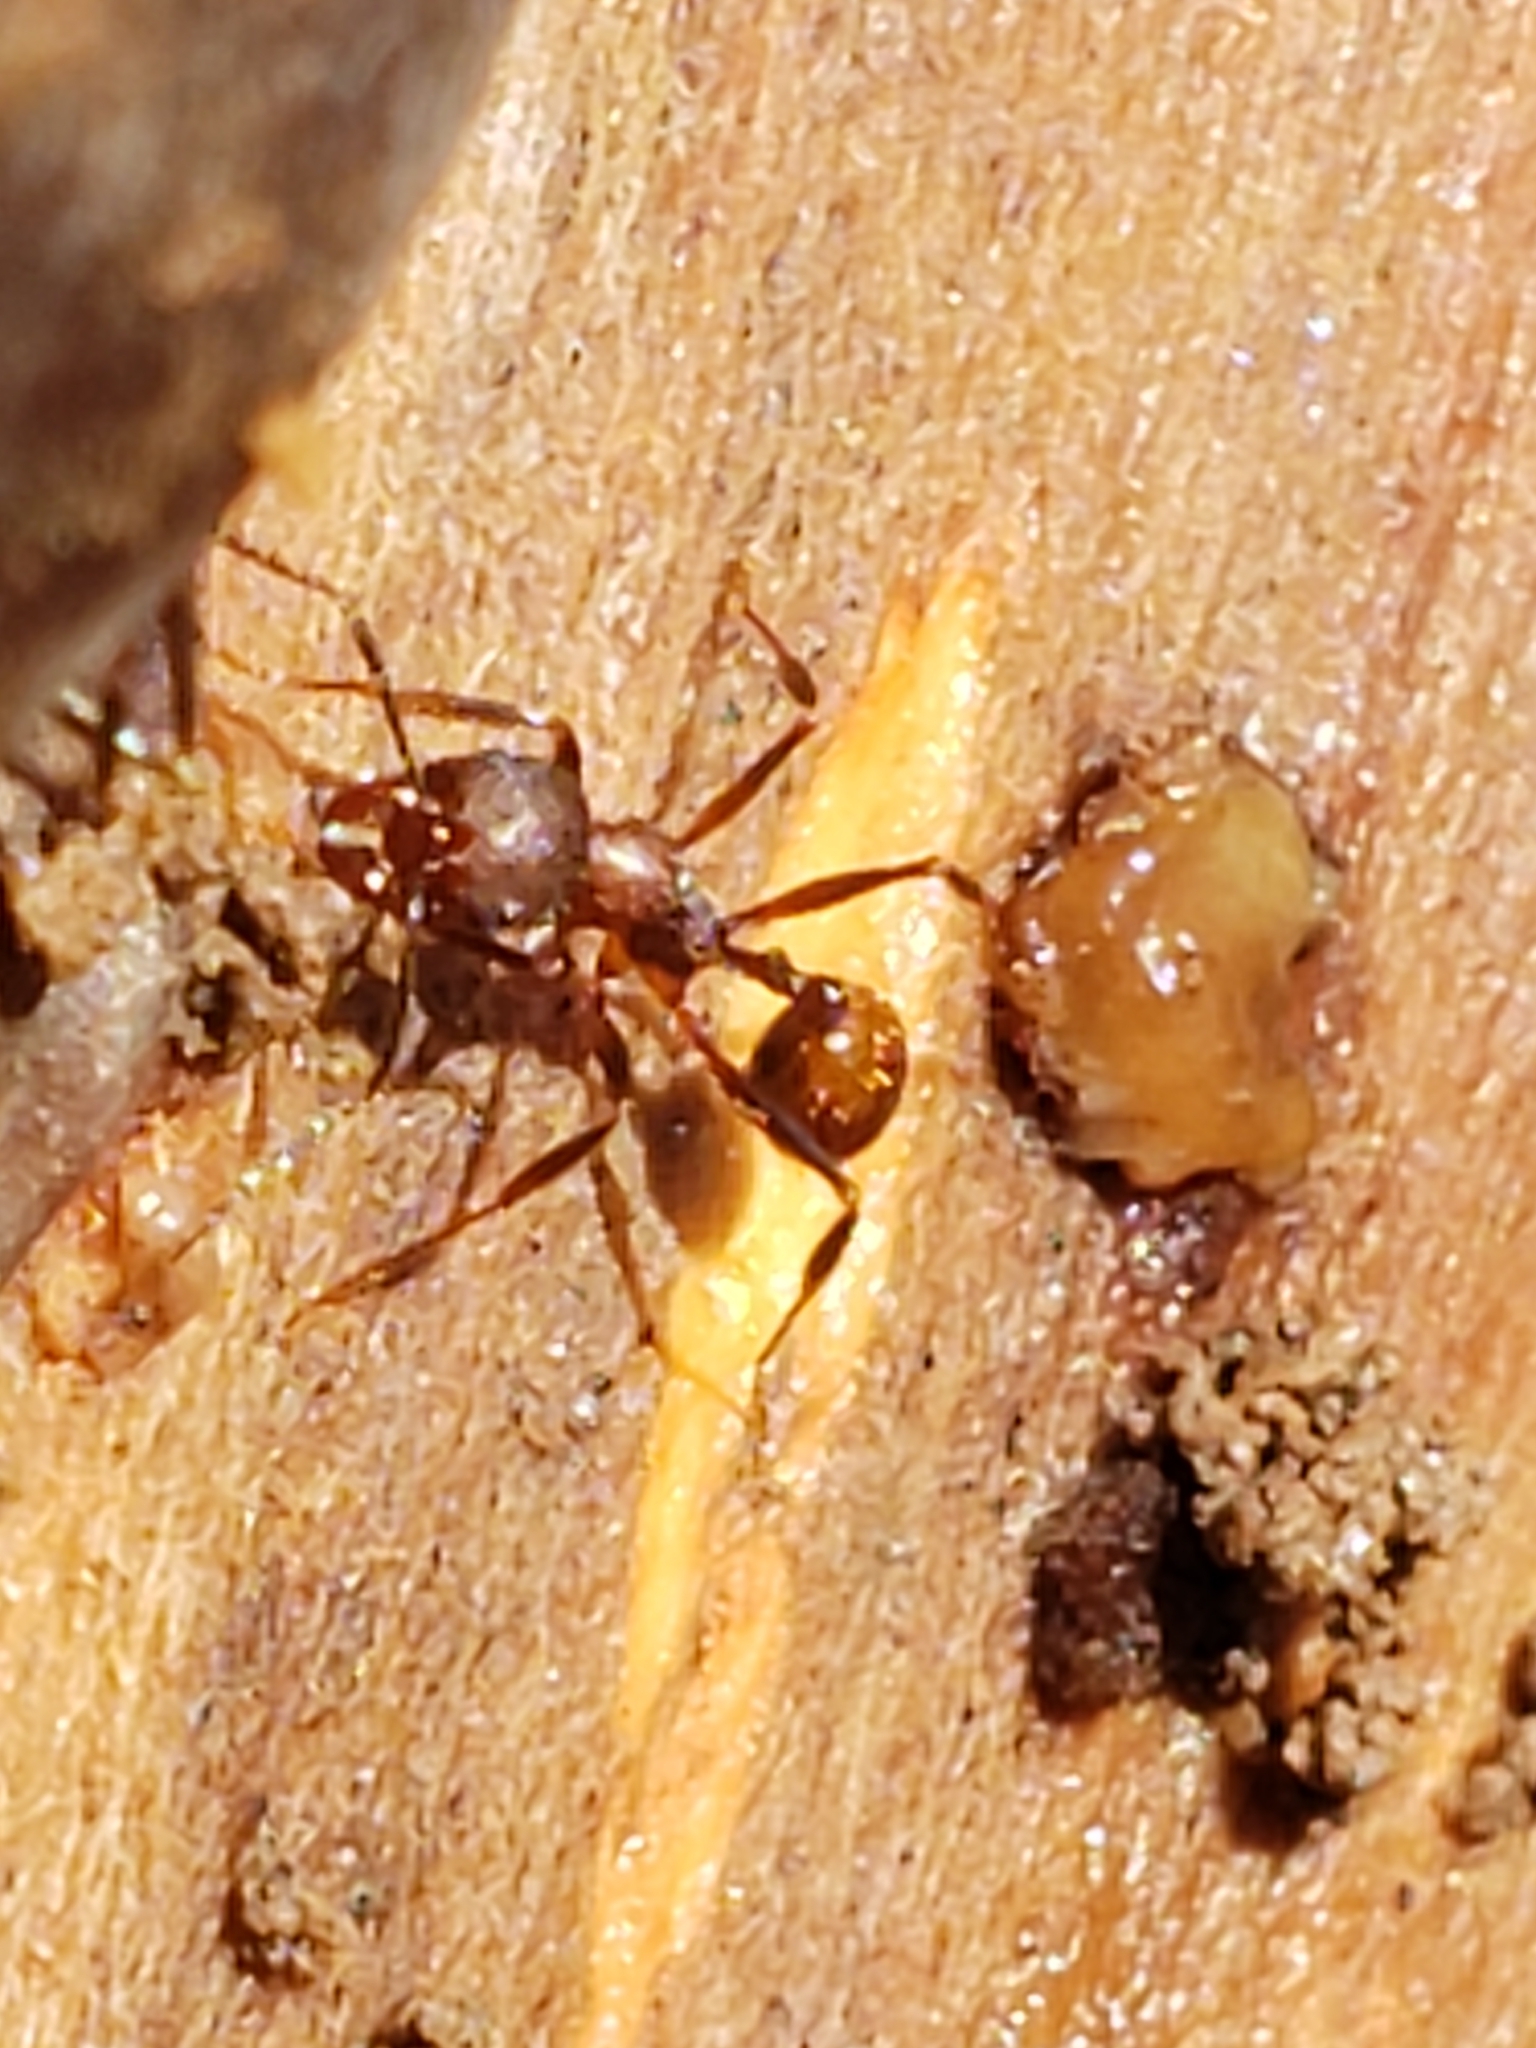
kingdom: Animalia
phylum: Arthropoda
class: Insecta
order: Hymenoptera
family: Formicidae
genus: Aphaenogaster
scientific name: Aphaenogaster fulva
